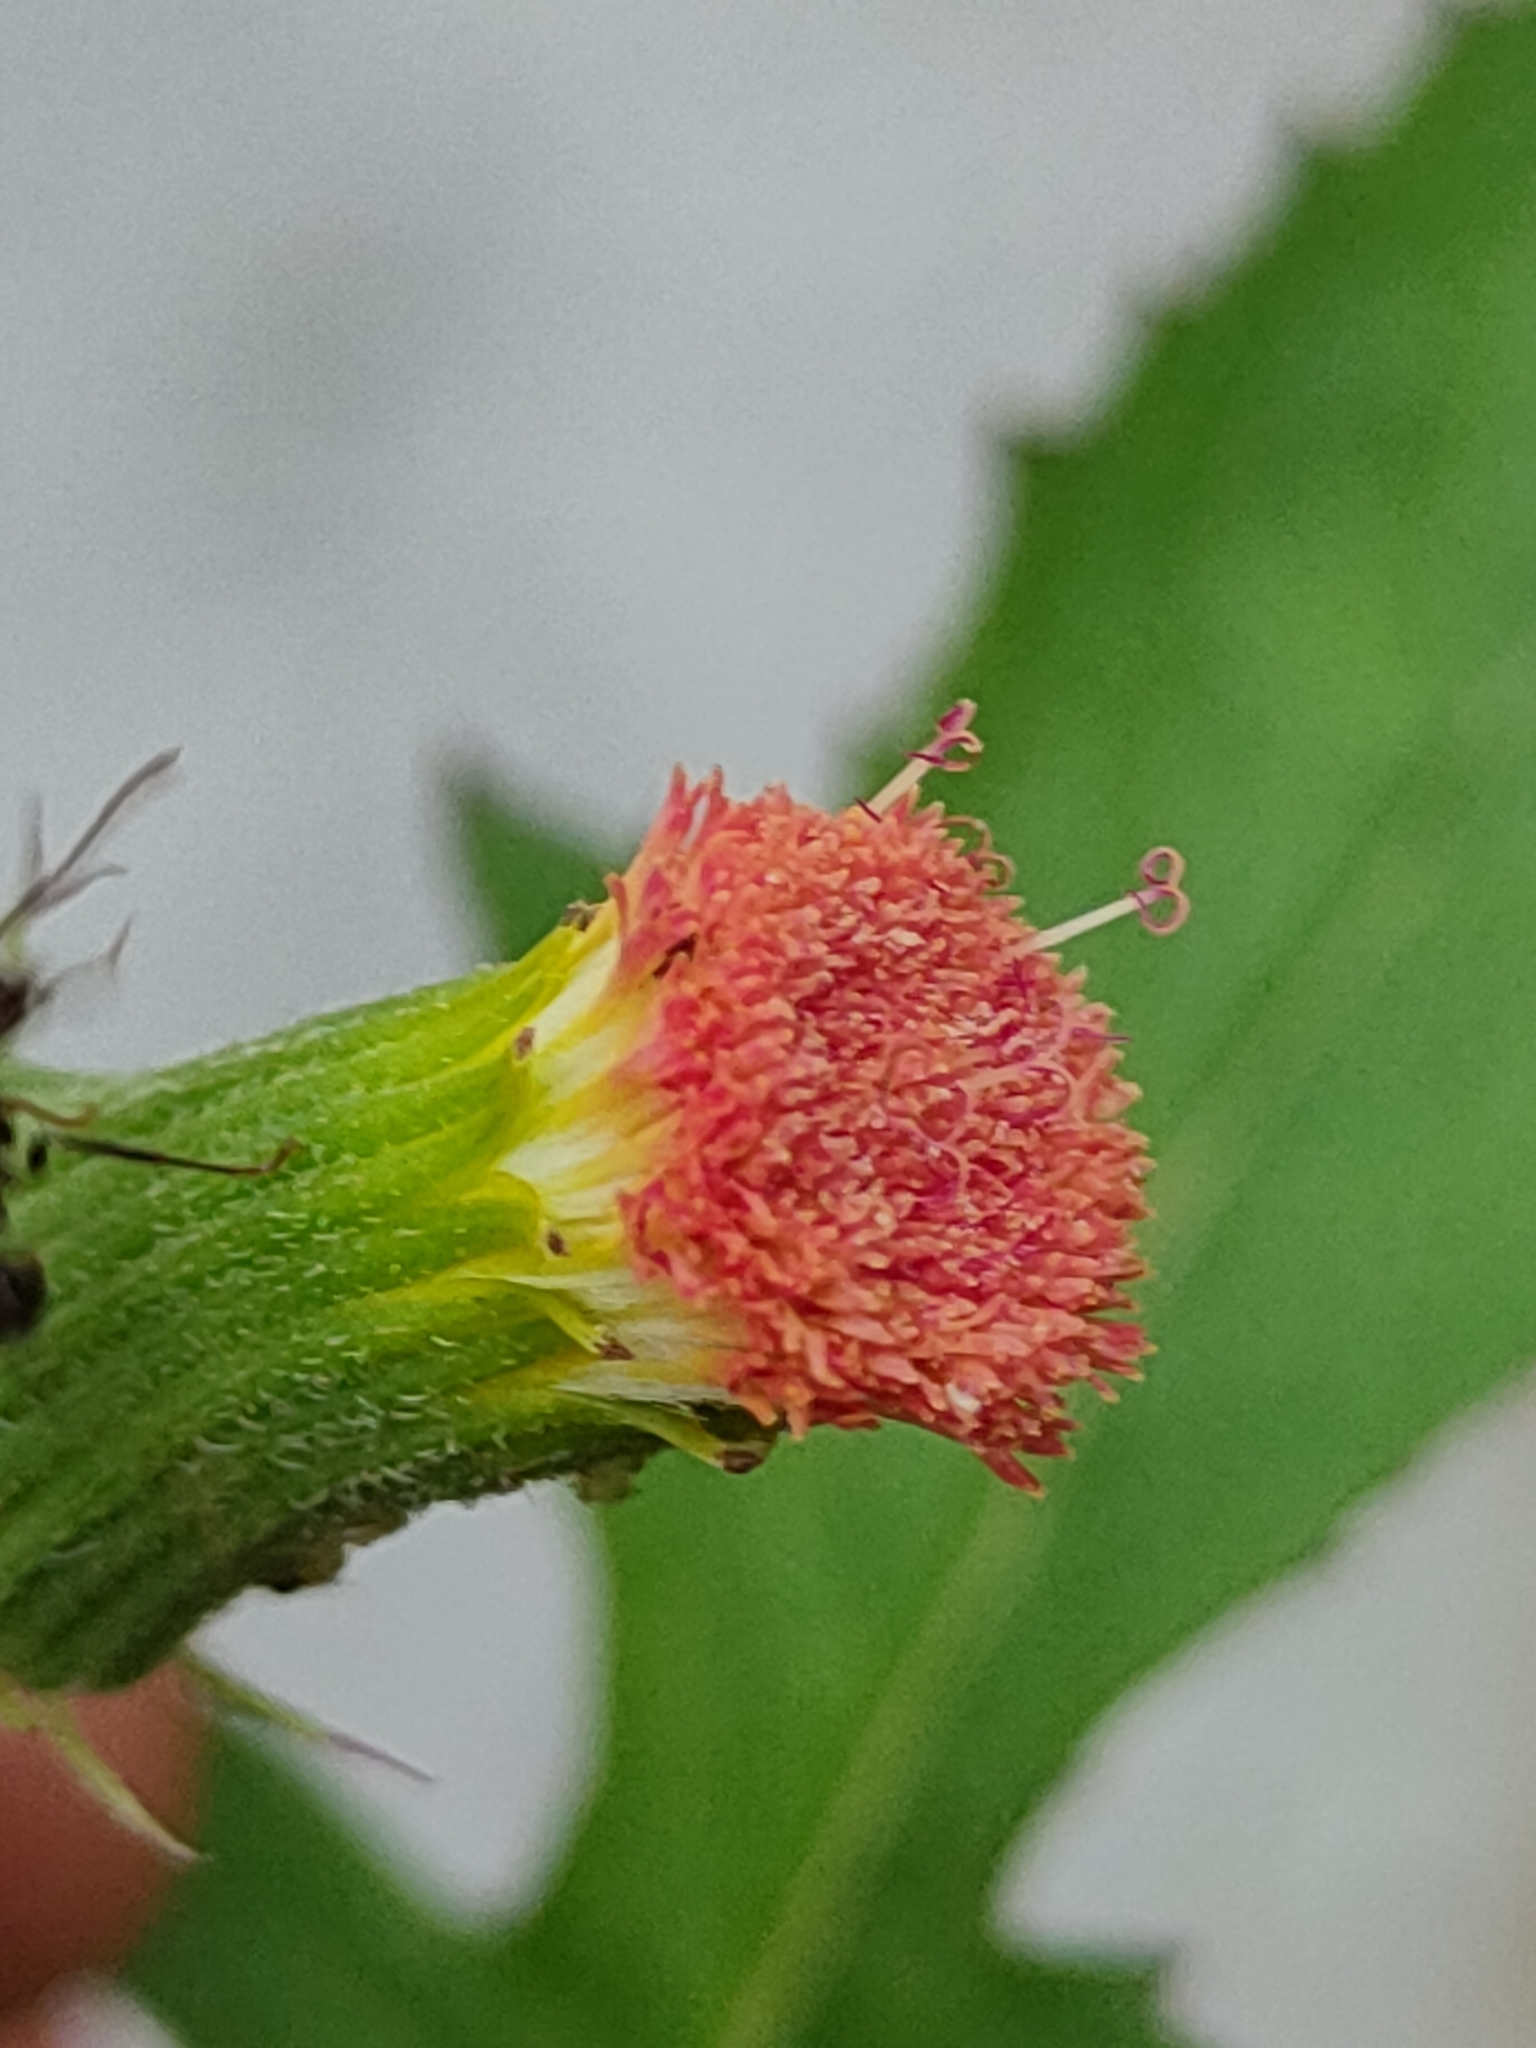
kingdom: Plantae
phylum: Tracheophyta
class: Magnoliopsida
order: Asterales
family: Asteraceae
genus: Crassocephalum
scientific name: Crassocephalum crepidioides
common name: Redflower ragleaf
